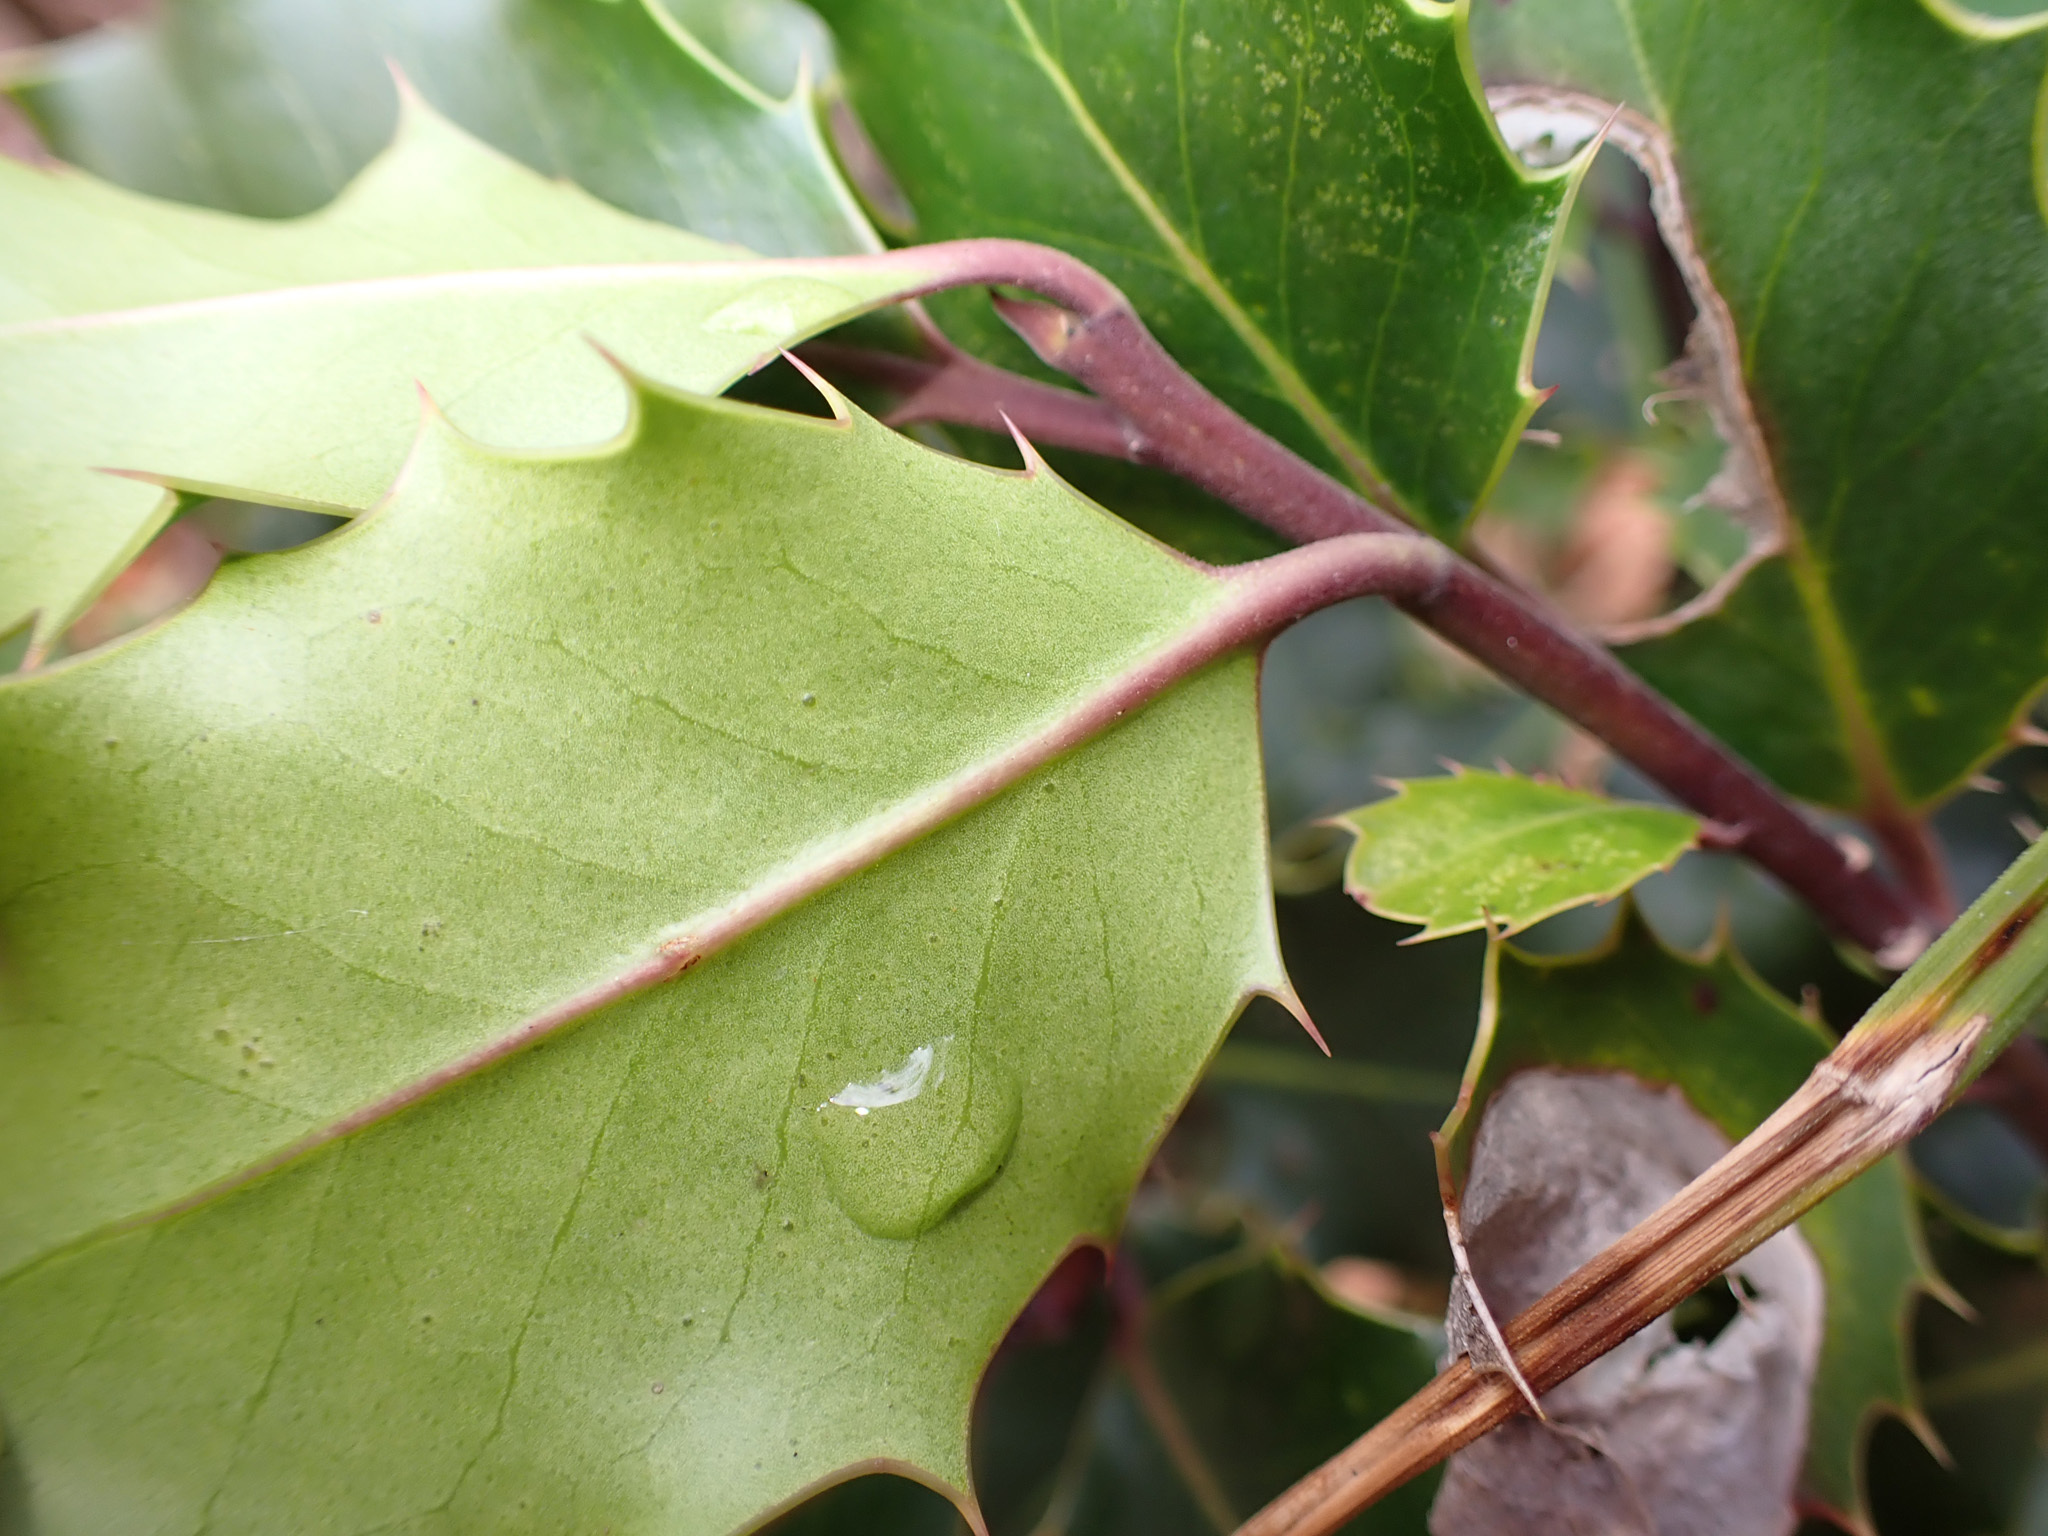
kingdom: Plantae
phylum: Tracheophyta
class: Magnoliopsida
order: Aquifoliales
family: Aquifoliaceae
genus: Ilex
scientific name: Ilex aquifolium
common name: English holly
